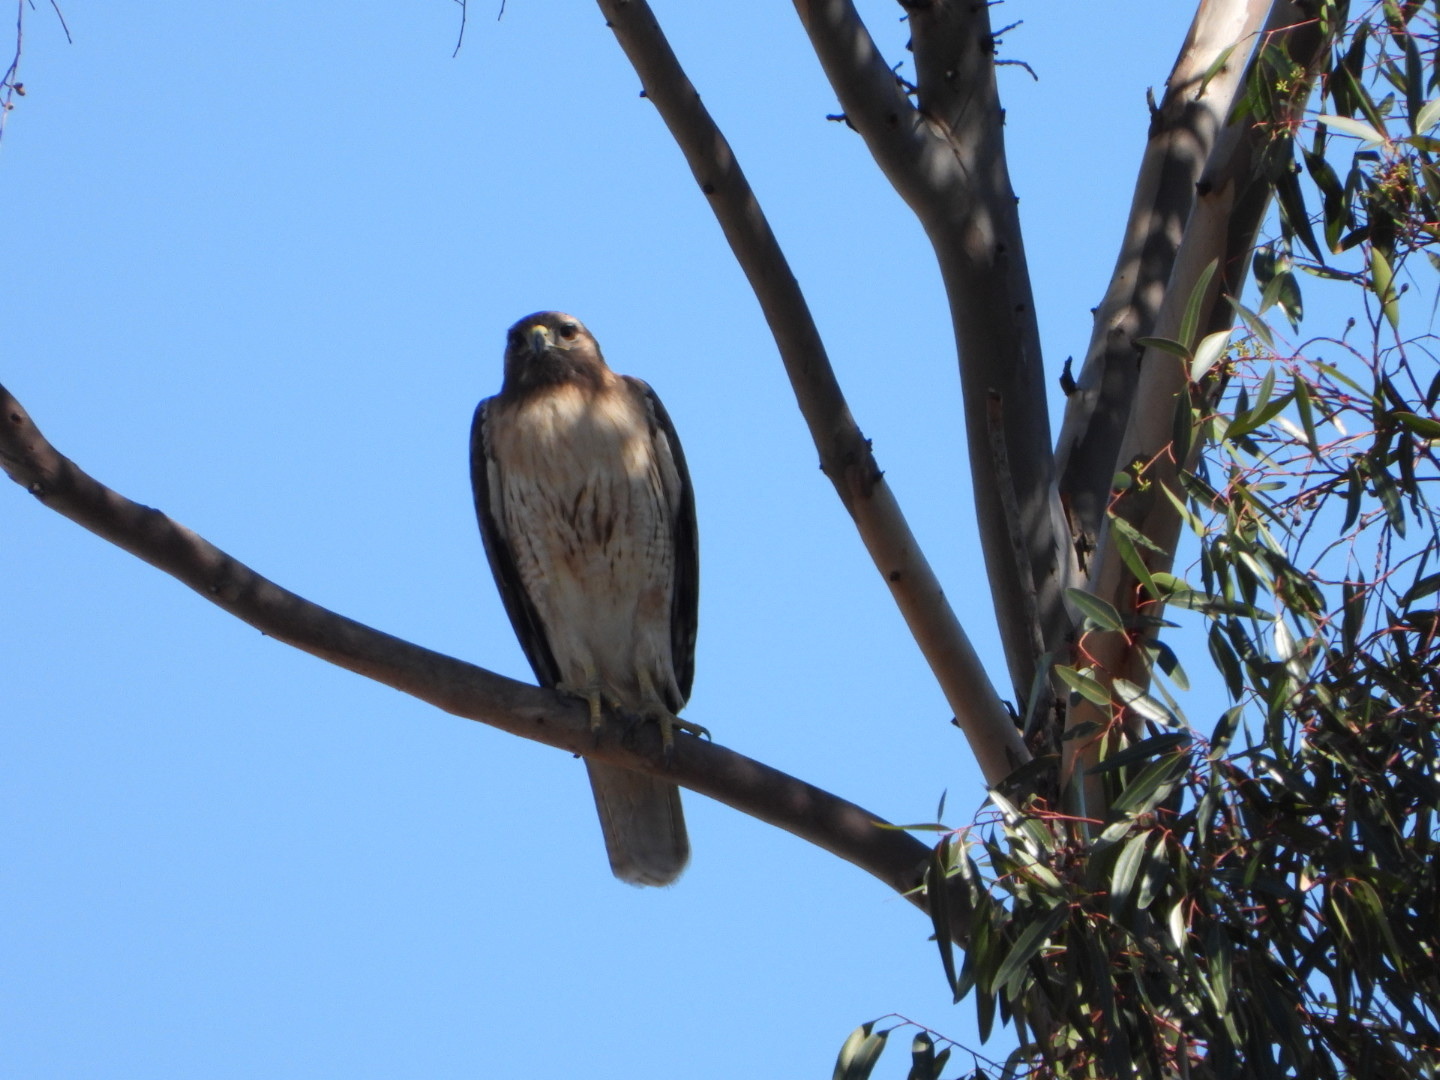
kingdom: Animalia
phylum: Chordata
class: Aves
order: Accipitriformes
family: Accipitridae
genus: Buteo
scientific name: Buteo jamaicensis
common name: Red-tailed hawk
